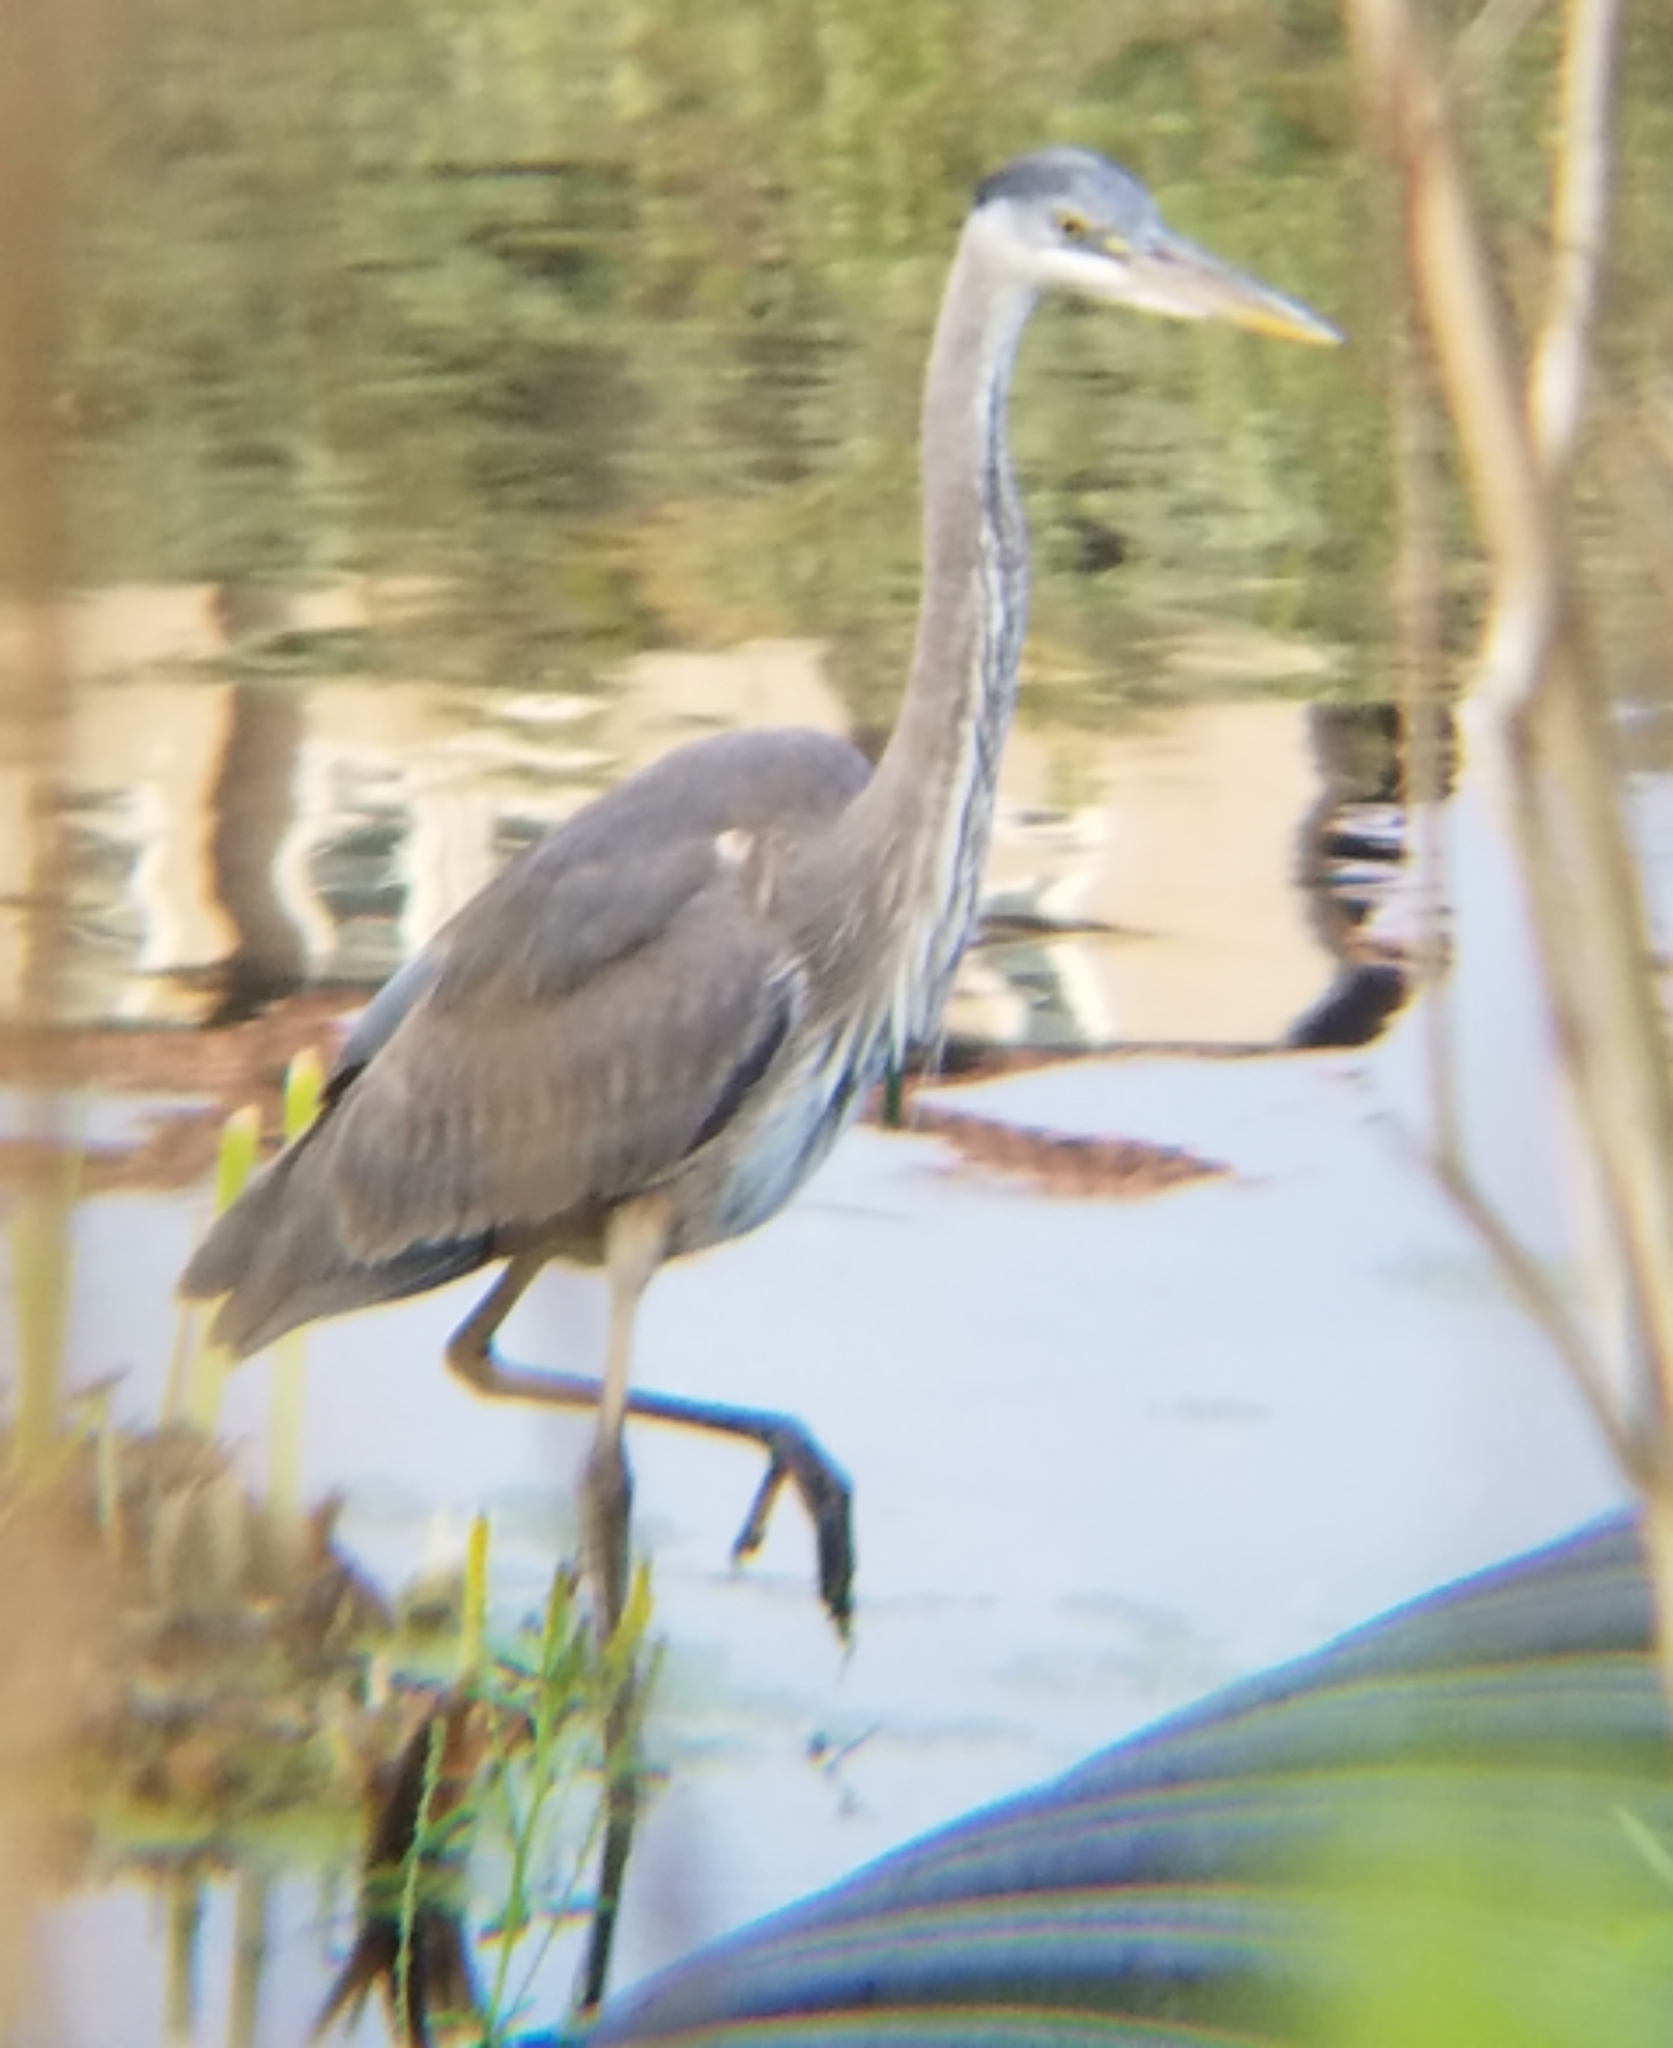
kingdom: Animalia
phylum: Chordata
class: Aves
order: Pelecaniformes
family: Ardeidae
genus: Ardea
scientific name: Ardea herodias
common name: Great blue heron
